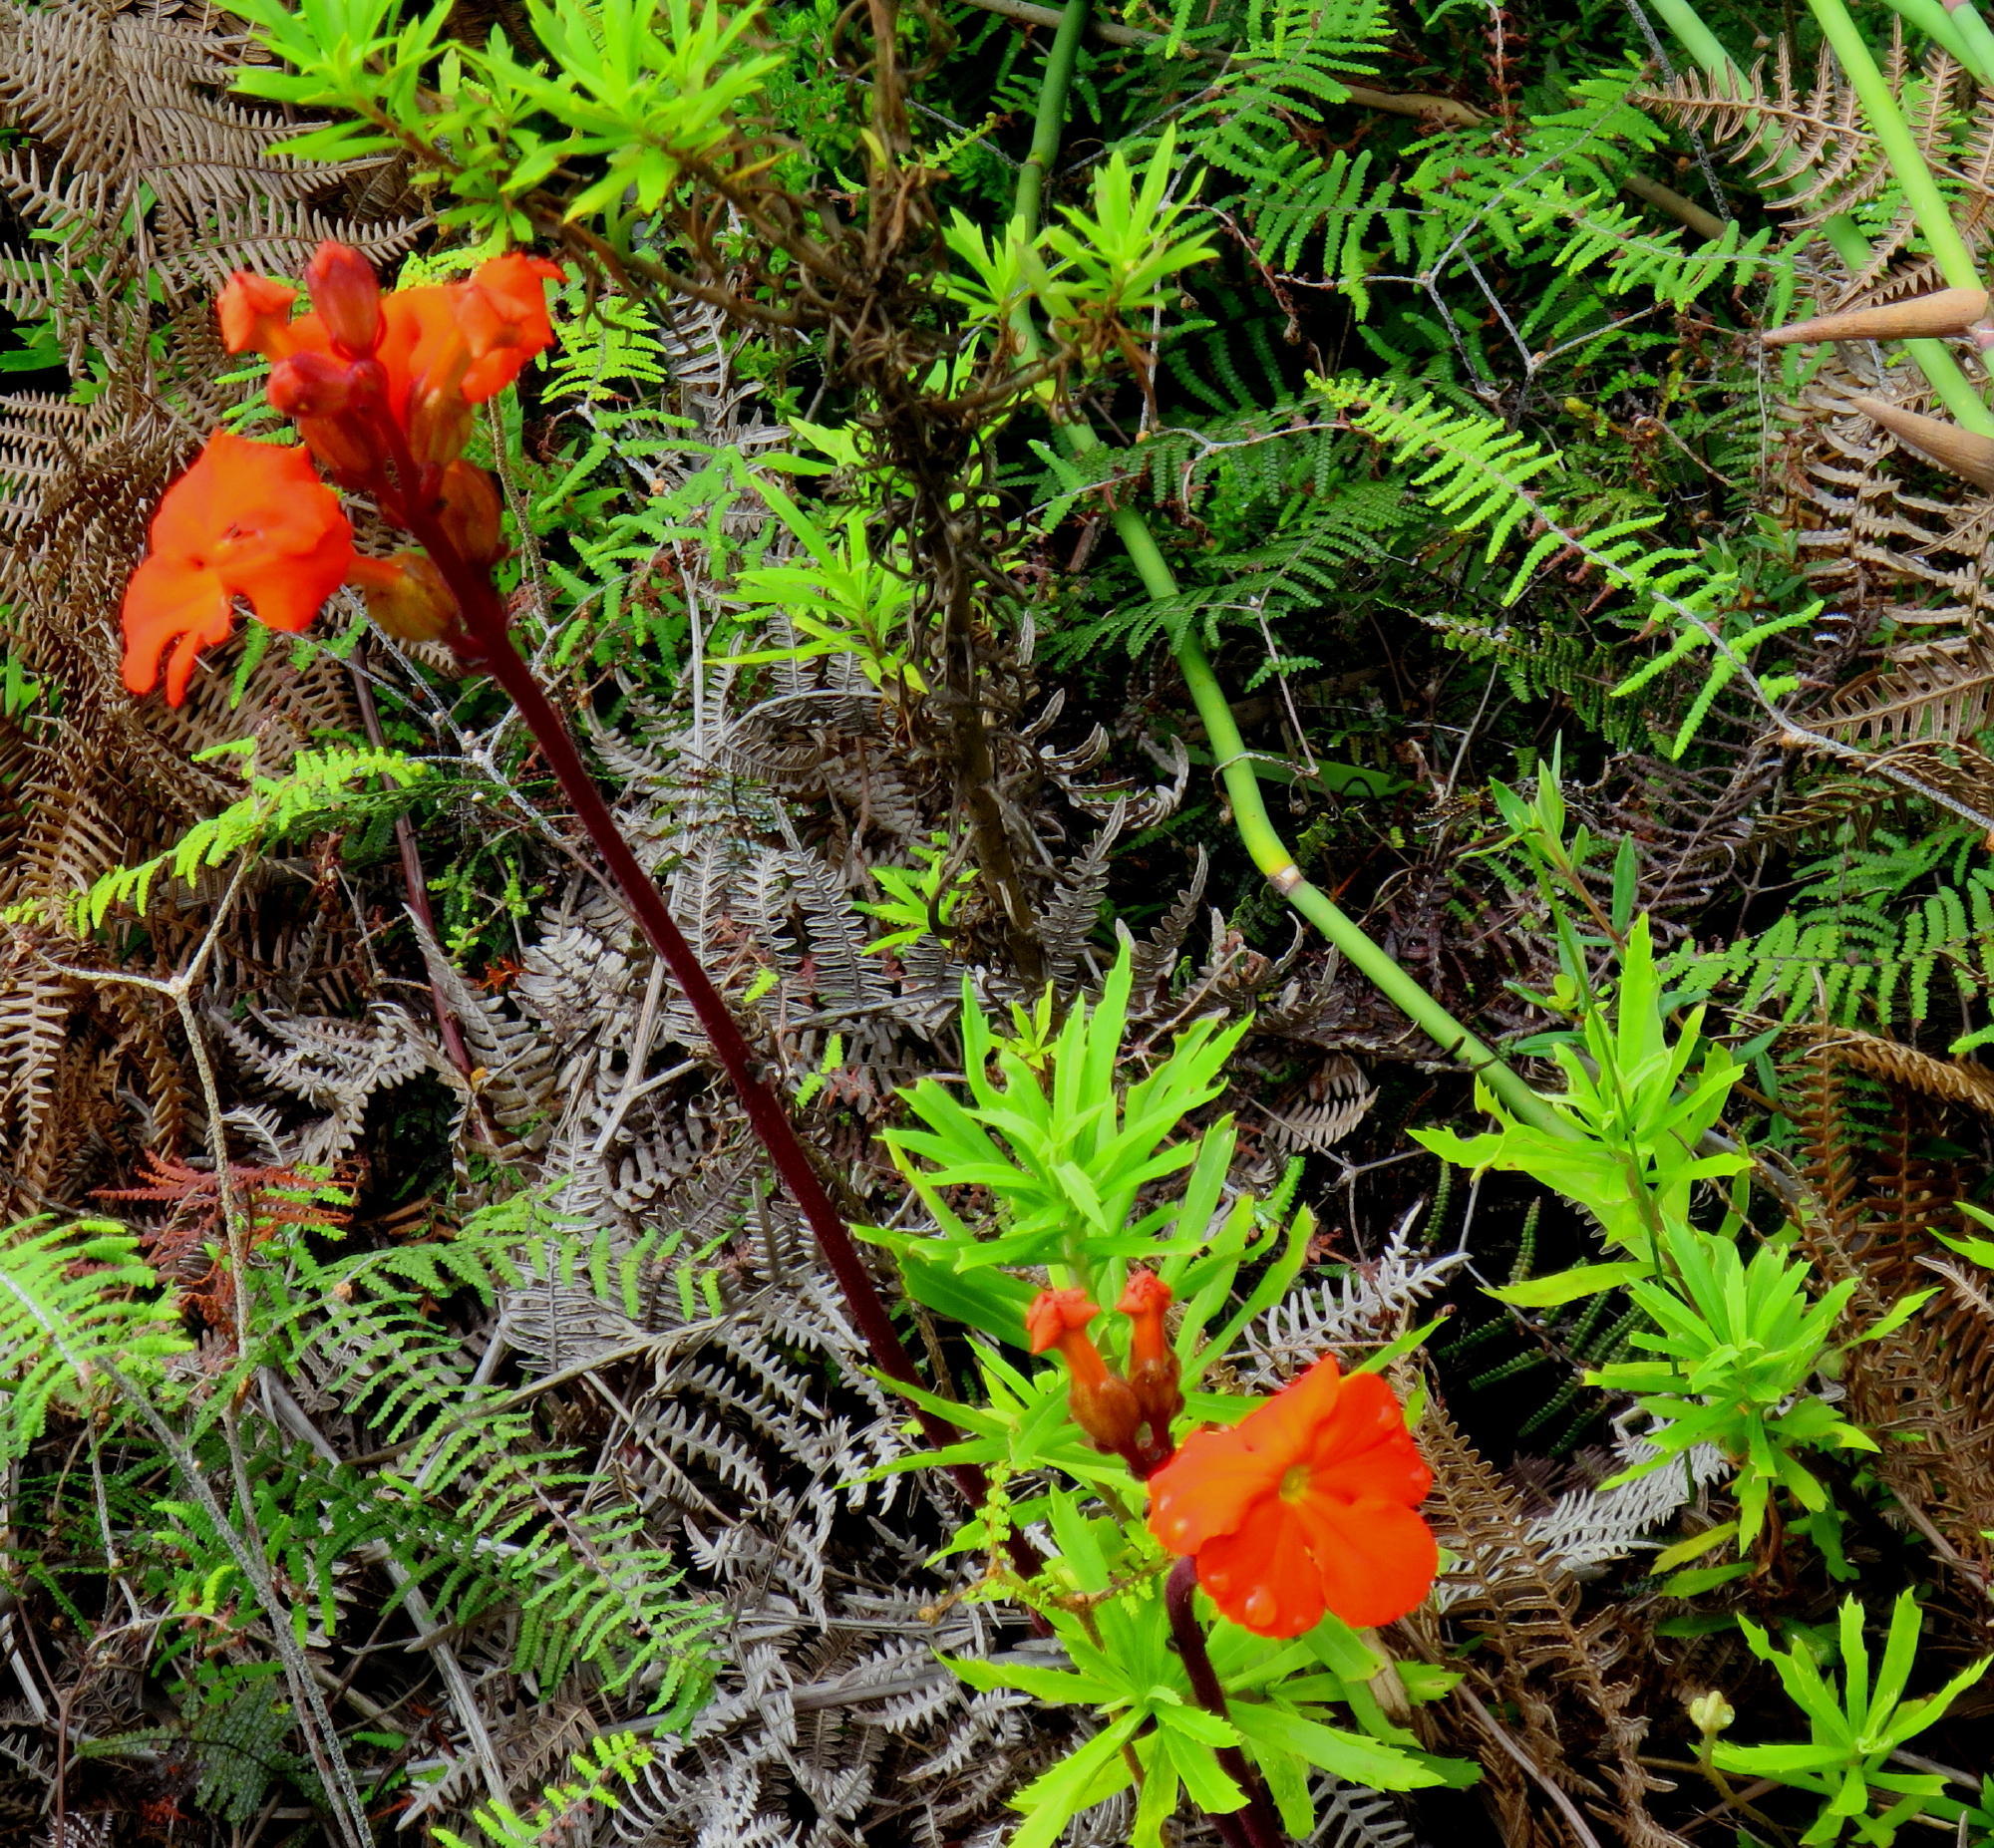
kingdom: Plantae
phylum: Tracheophyta
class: Magnoliopsida
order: Lamiales
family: Orobanchaceae
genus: Harveya
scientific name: Harveya stenosiphon
